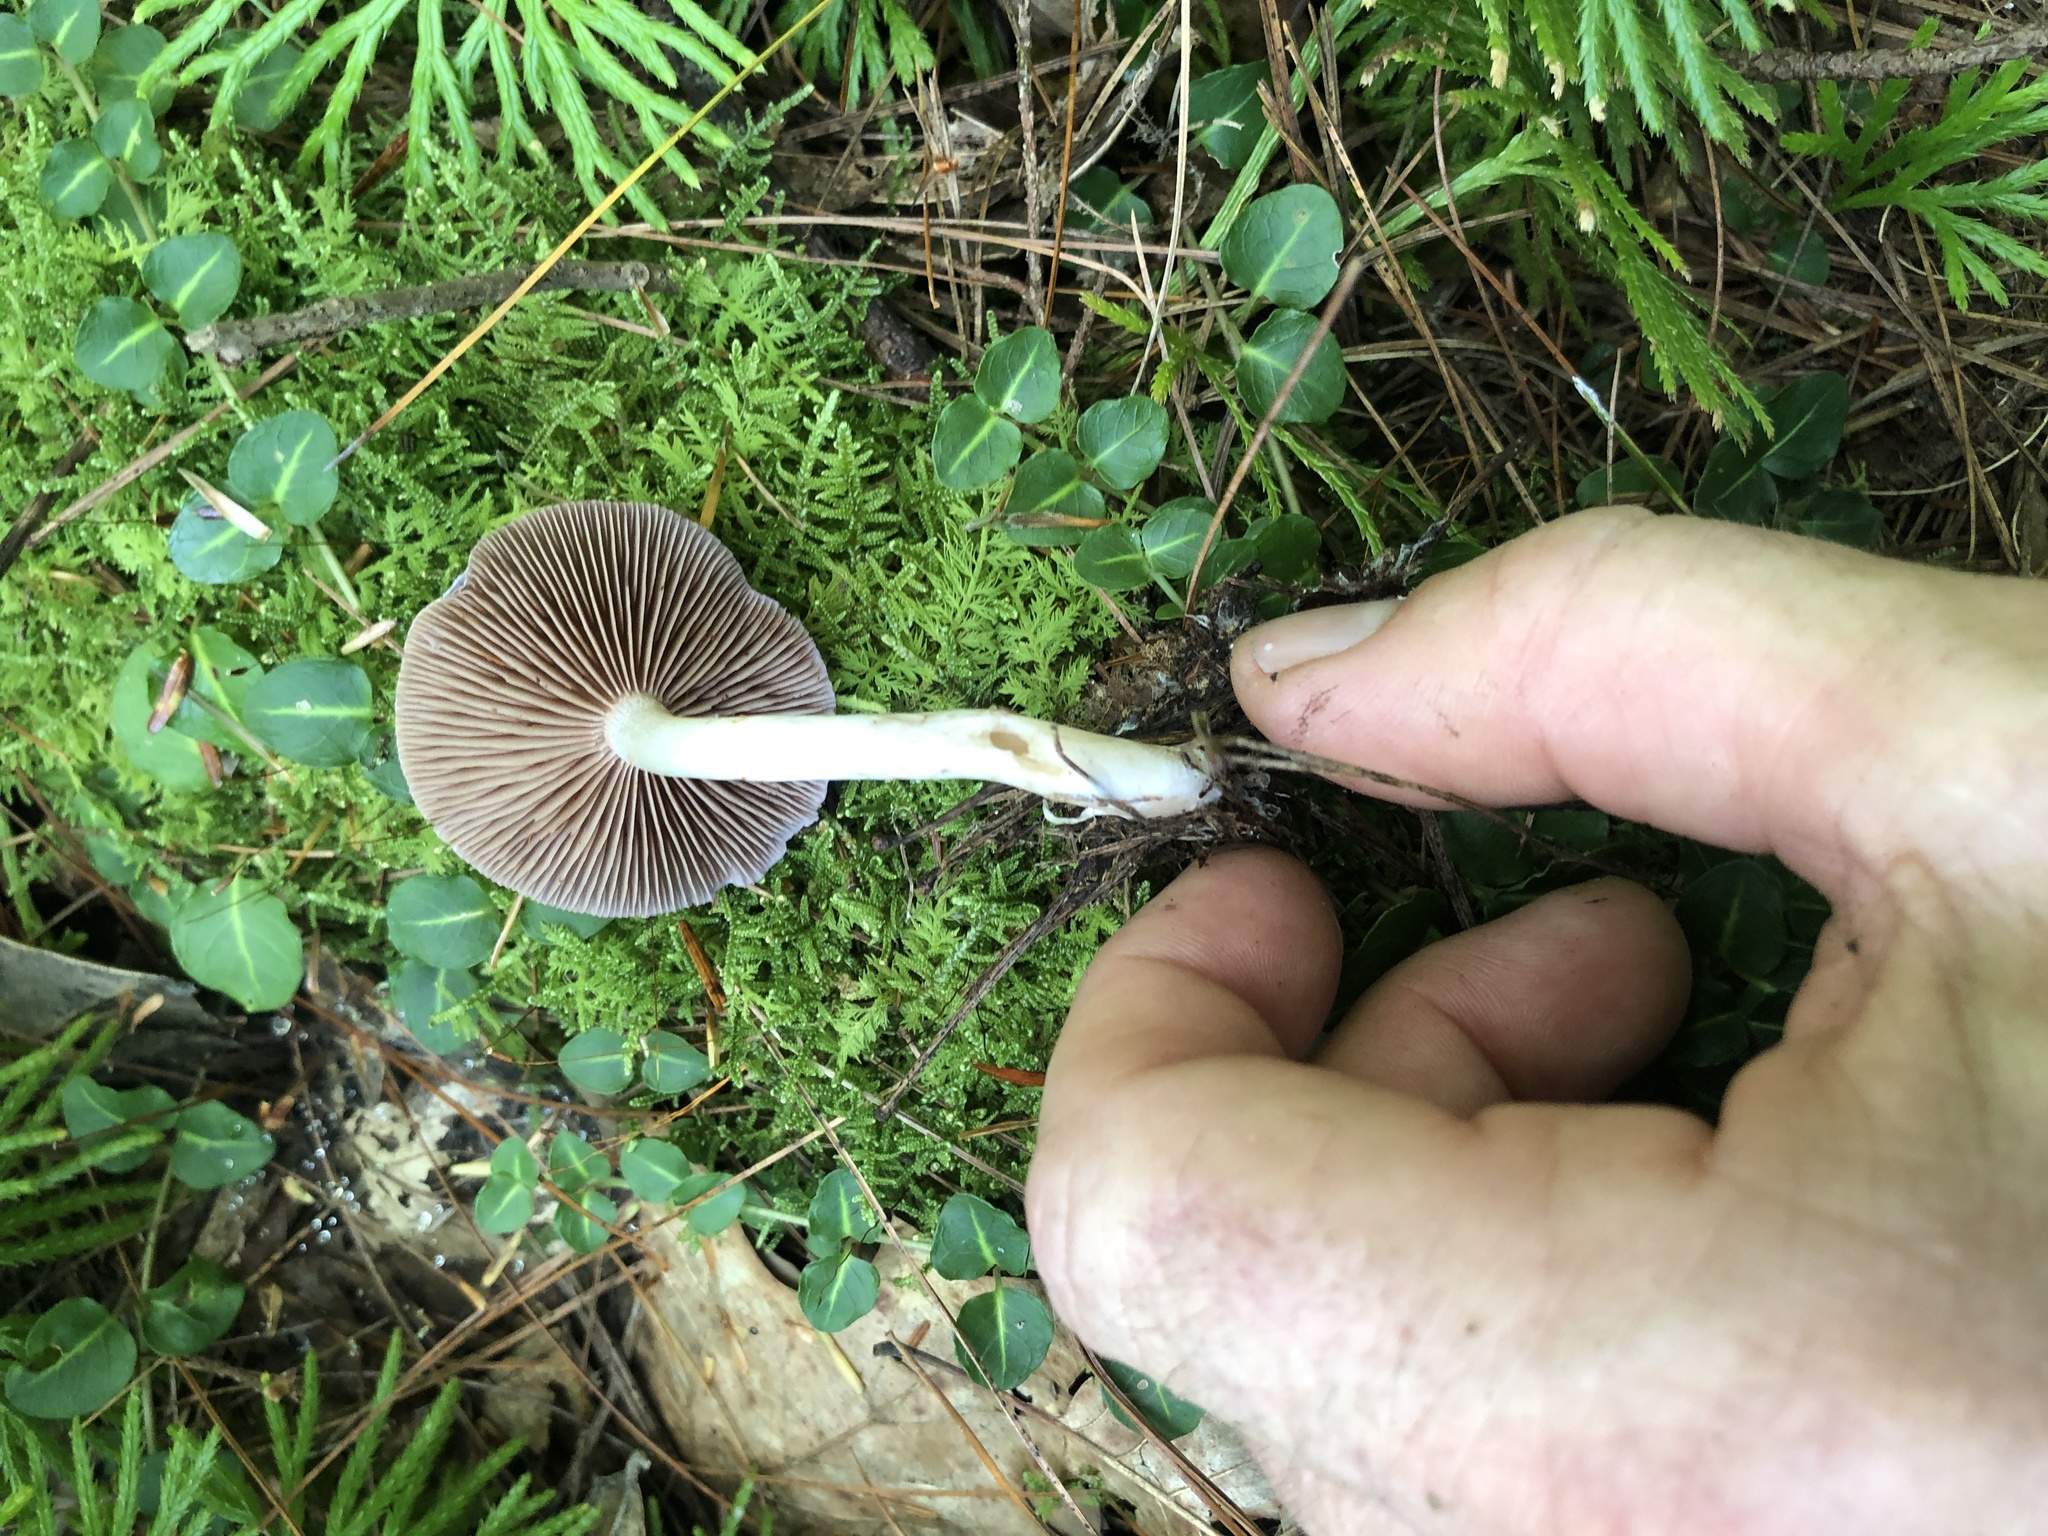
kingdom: Fungi
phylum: Basidiomycota
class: Agaricomycetes
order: Agaricales
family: Cortinariaceae
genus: Cortinarius
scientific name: Cortinarius iodes
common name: Viscid violet cort
